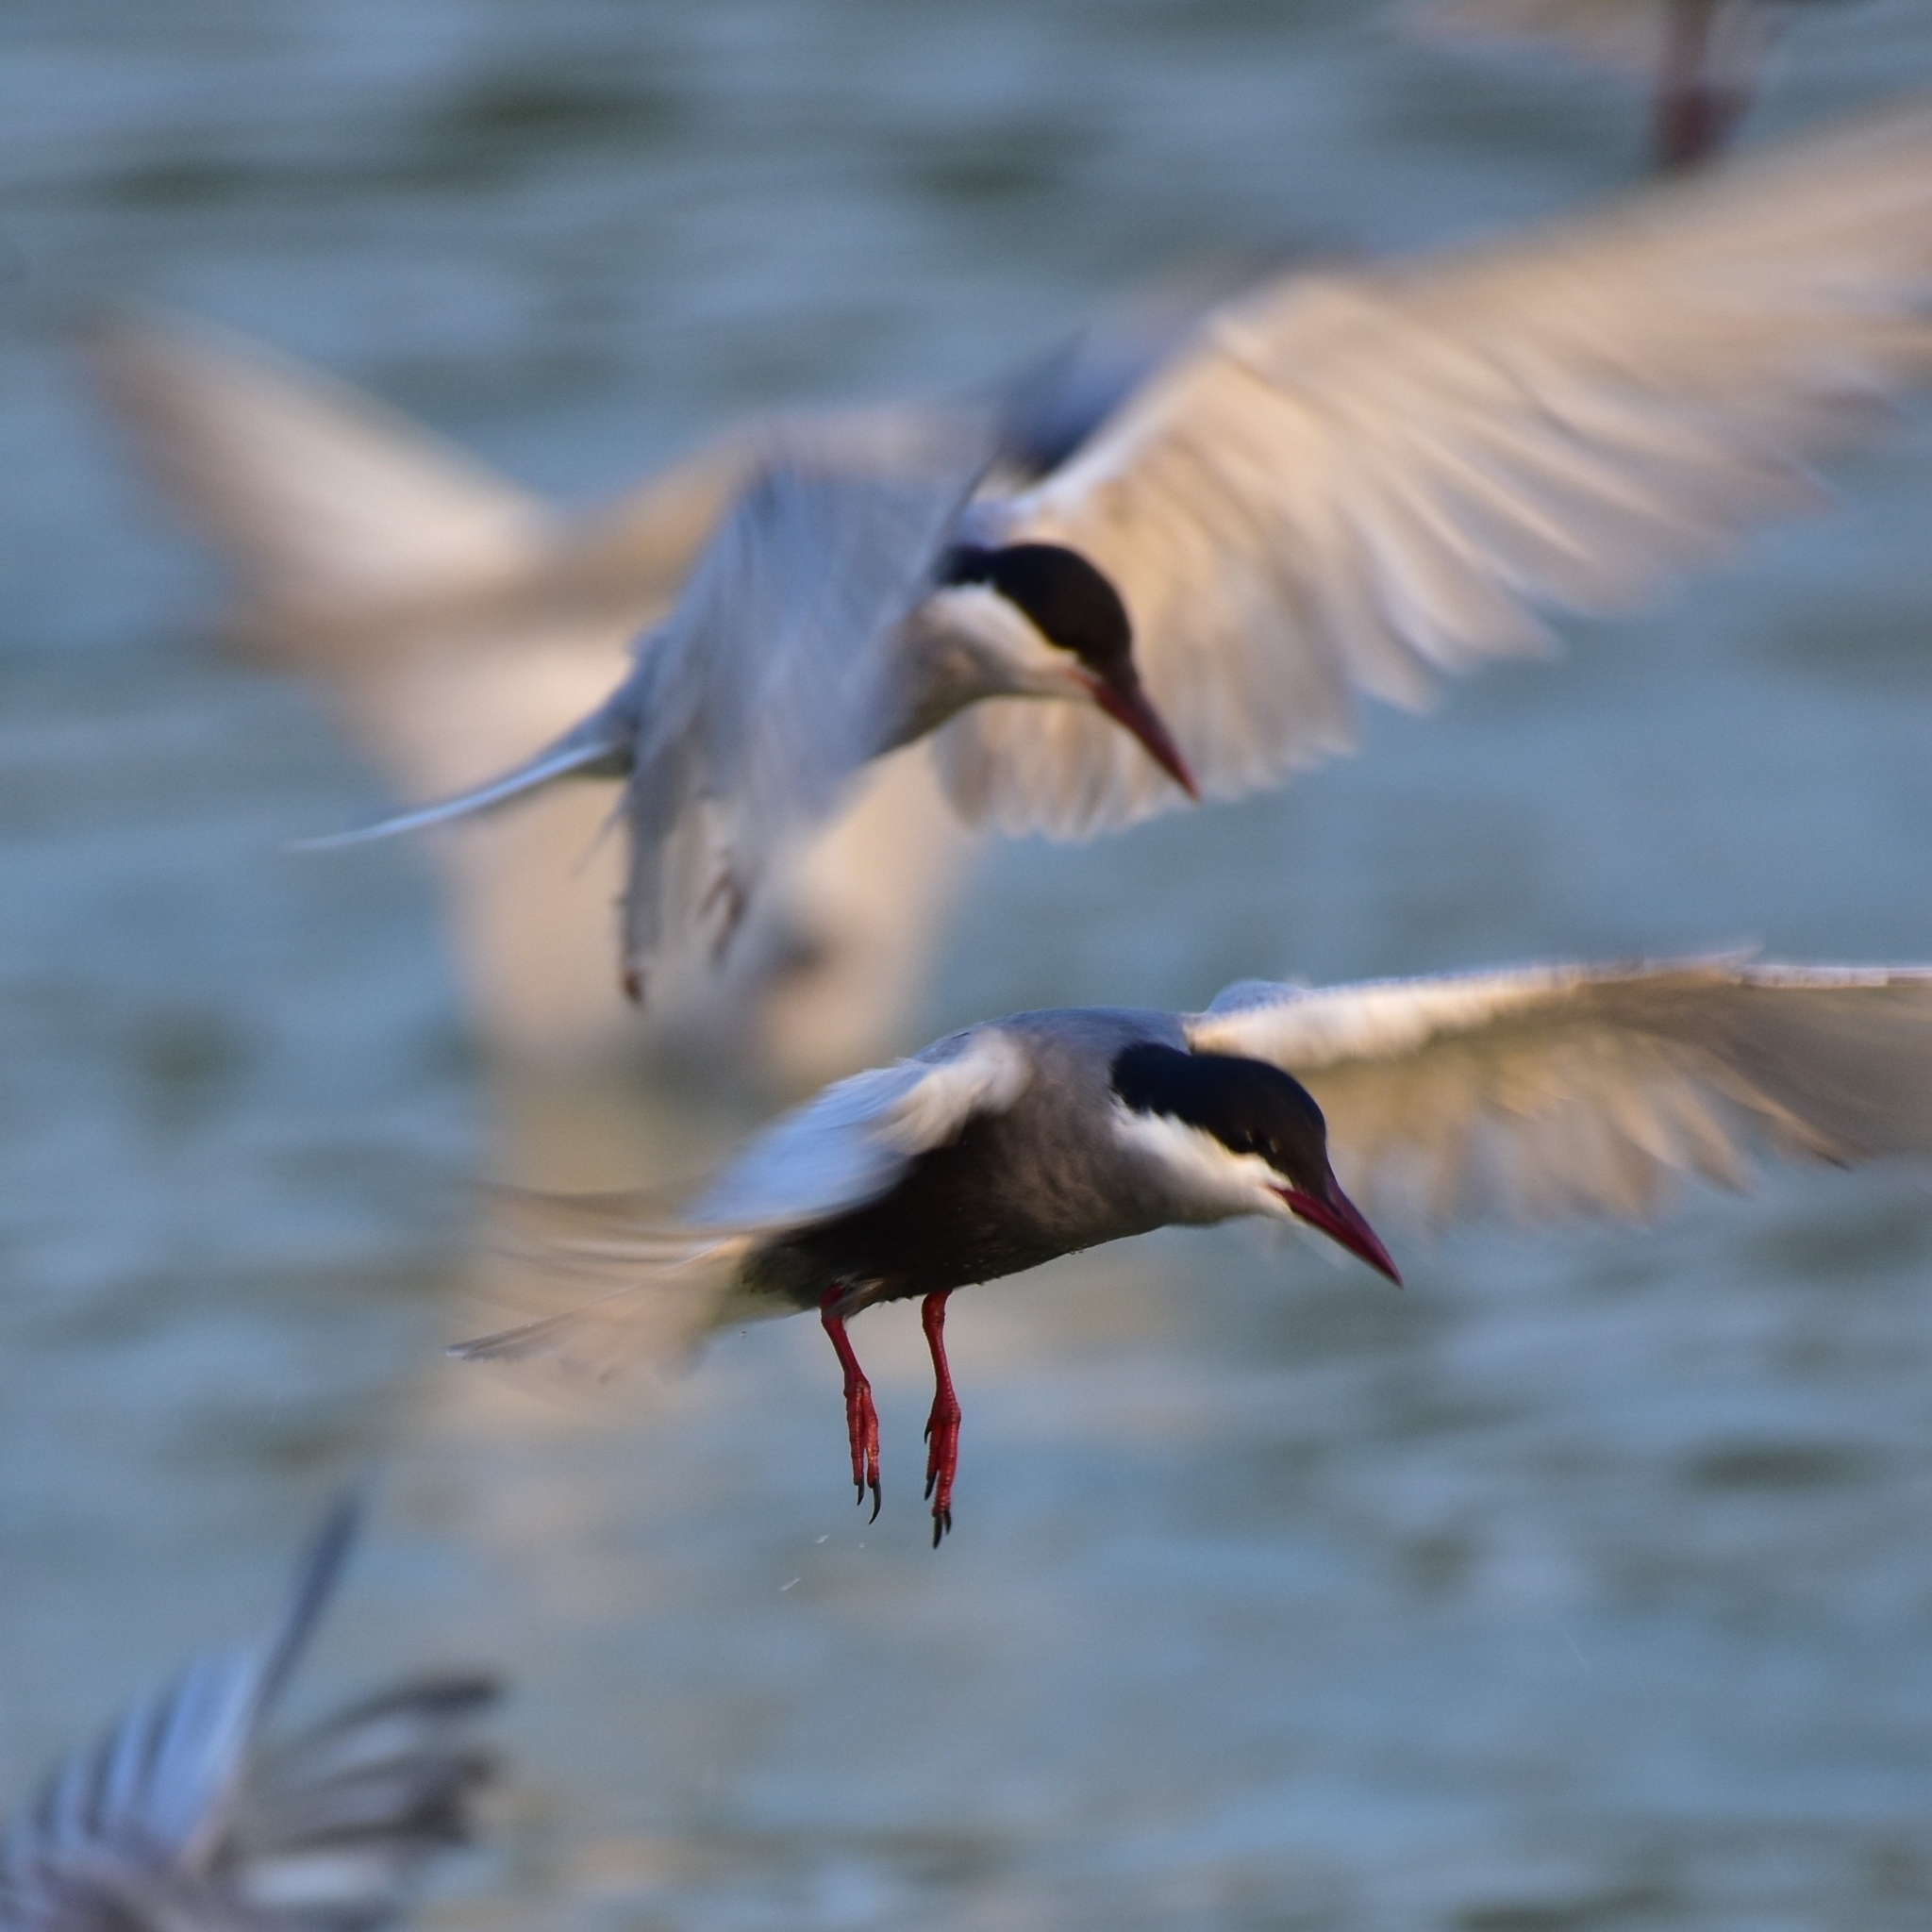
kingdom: Animalia
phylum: Chordata
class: Aves
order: Charadriiformes
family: Laridae
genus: Chlidonias
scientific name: Chlidonias hybrida
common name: Whiskered tern
